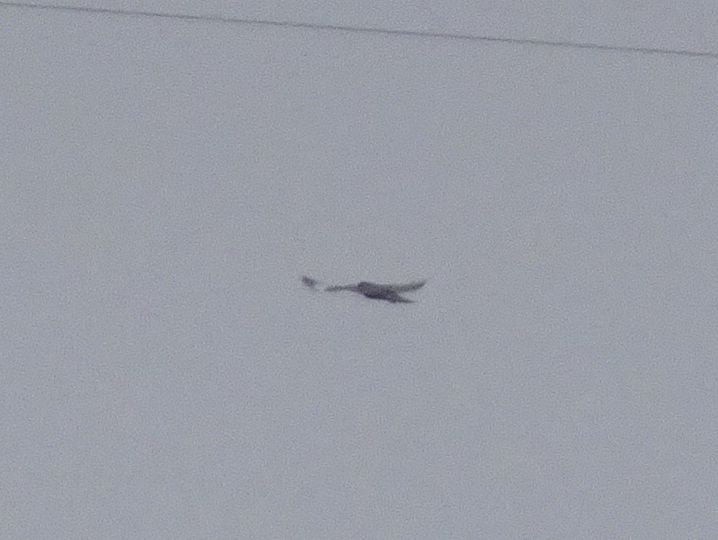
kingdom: Animalia
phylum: Chordata
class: Aves
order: Accipitriformes
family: Accipitridae
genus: Buteo
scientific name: Buteo lagopus
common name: Rough-legged buzzard
